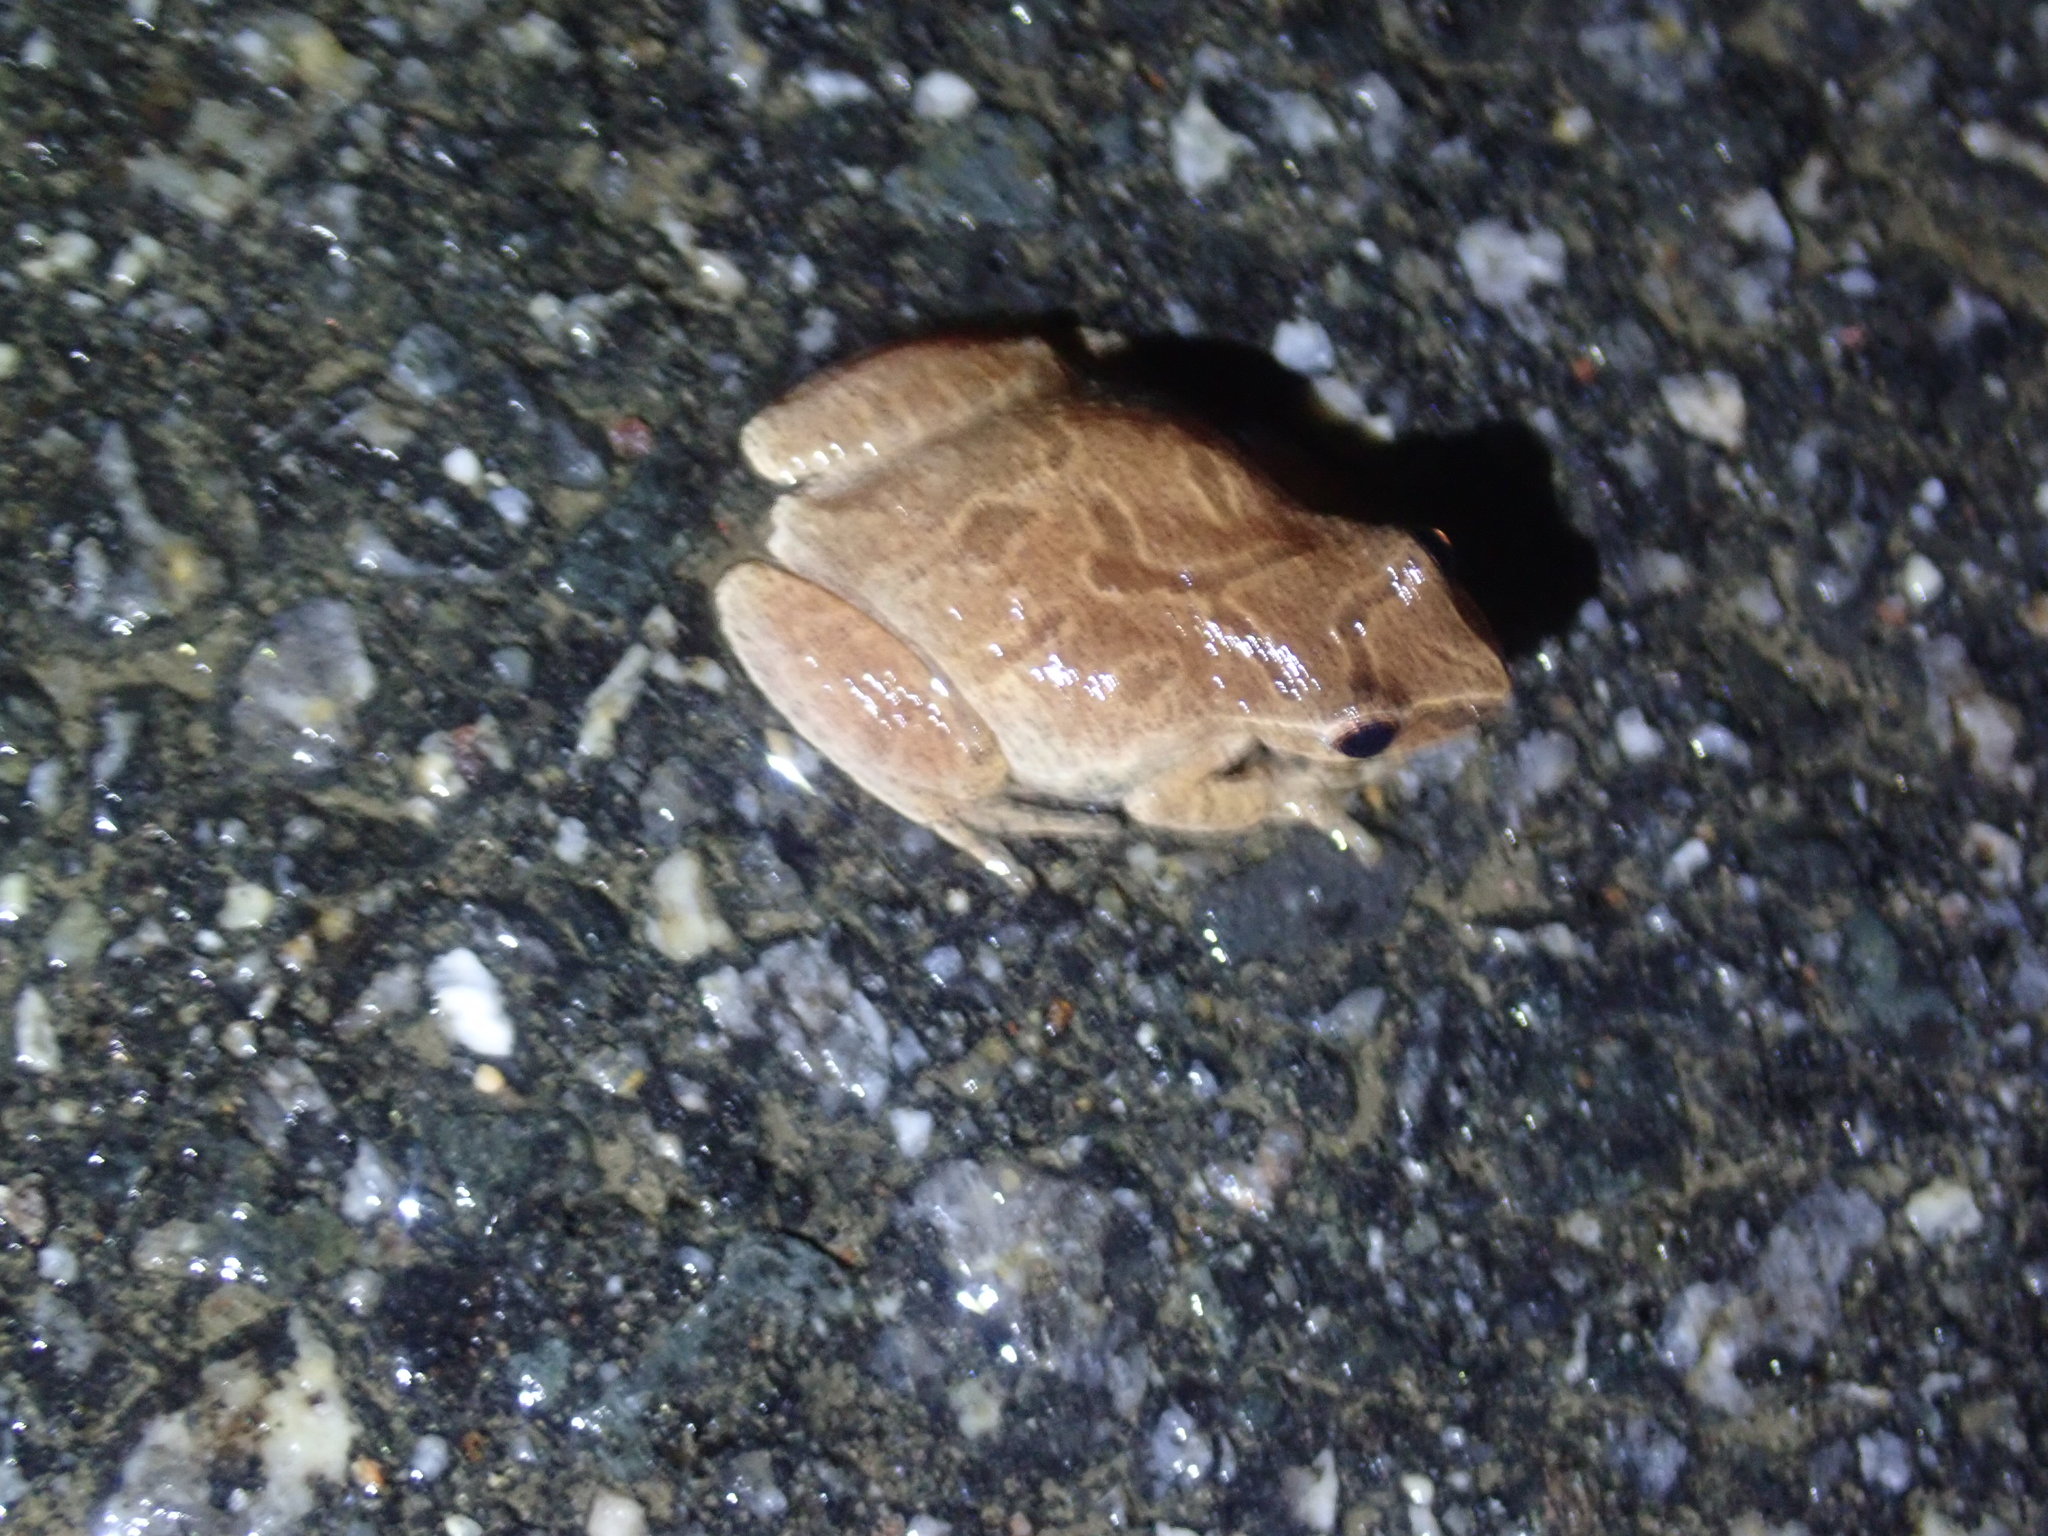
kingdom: Animalia
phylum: Chordata
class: Amphibia
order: Anura
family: Hylidae
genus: Pseudacris
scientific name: Pseudacris crucifer
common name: Spring peeper
